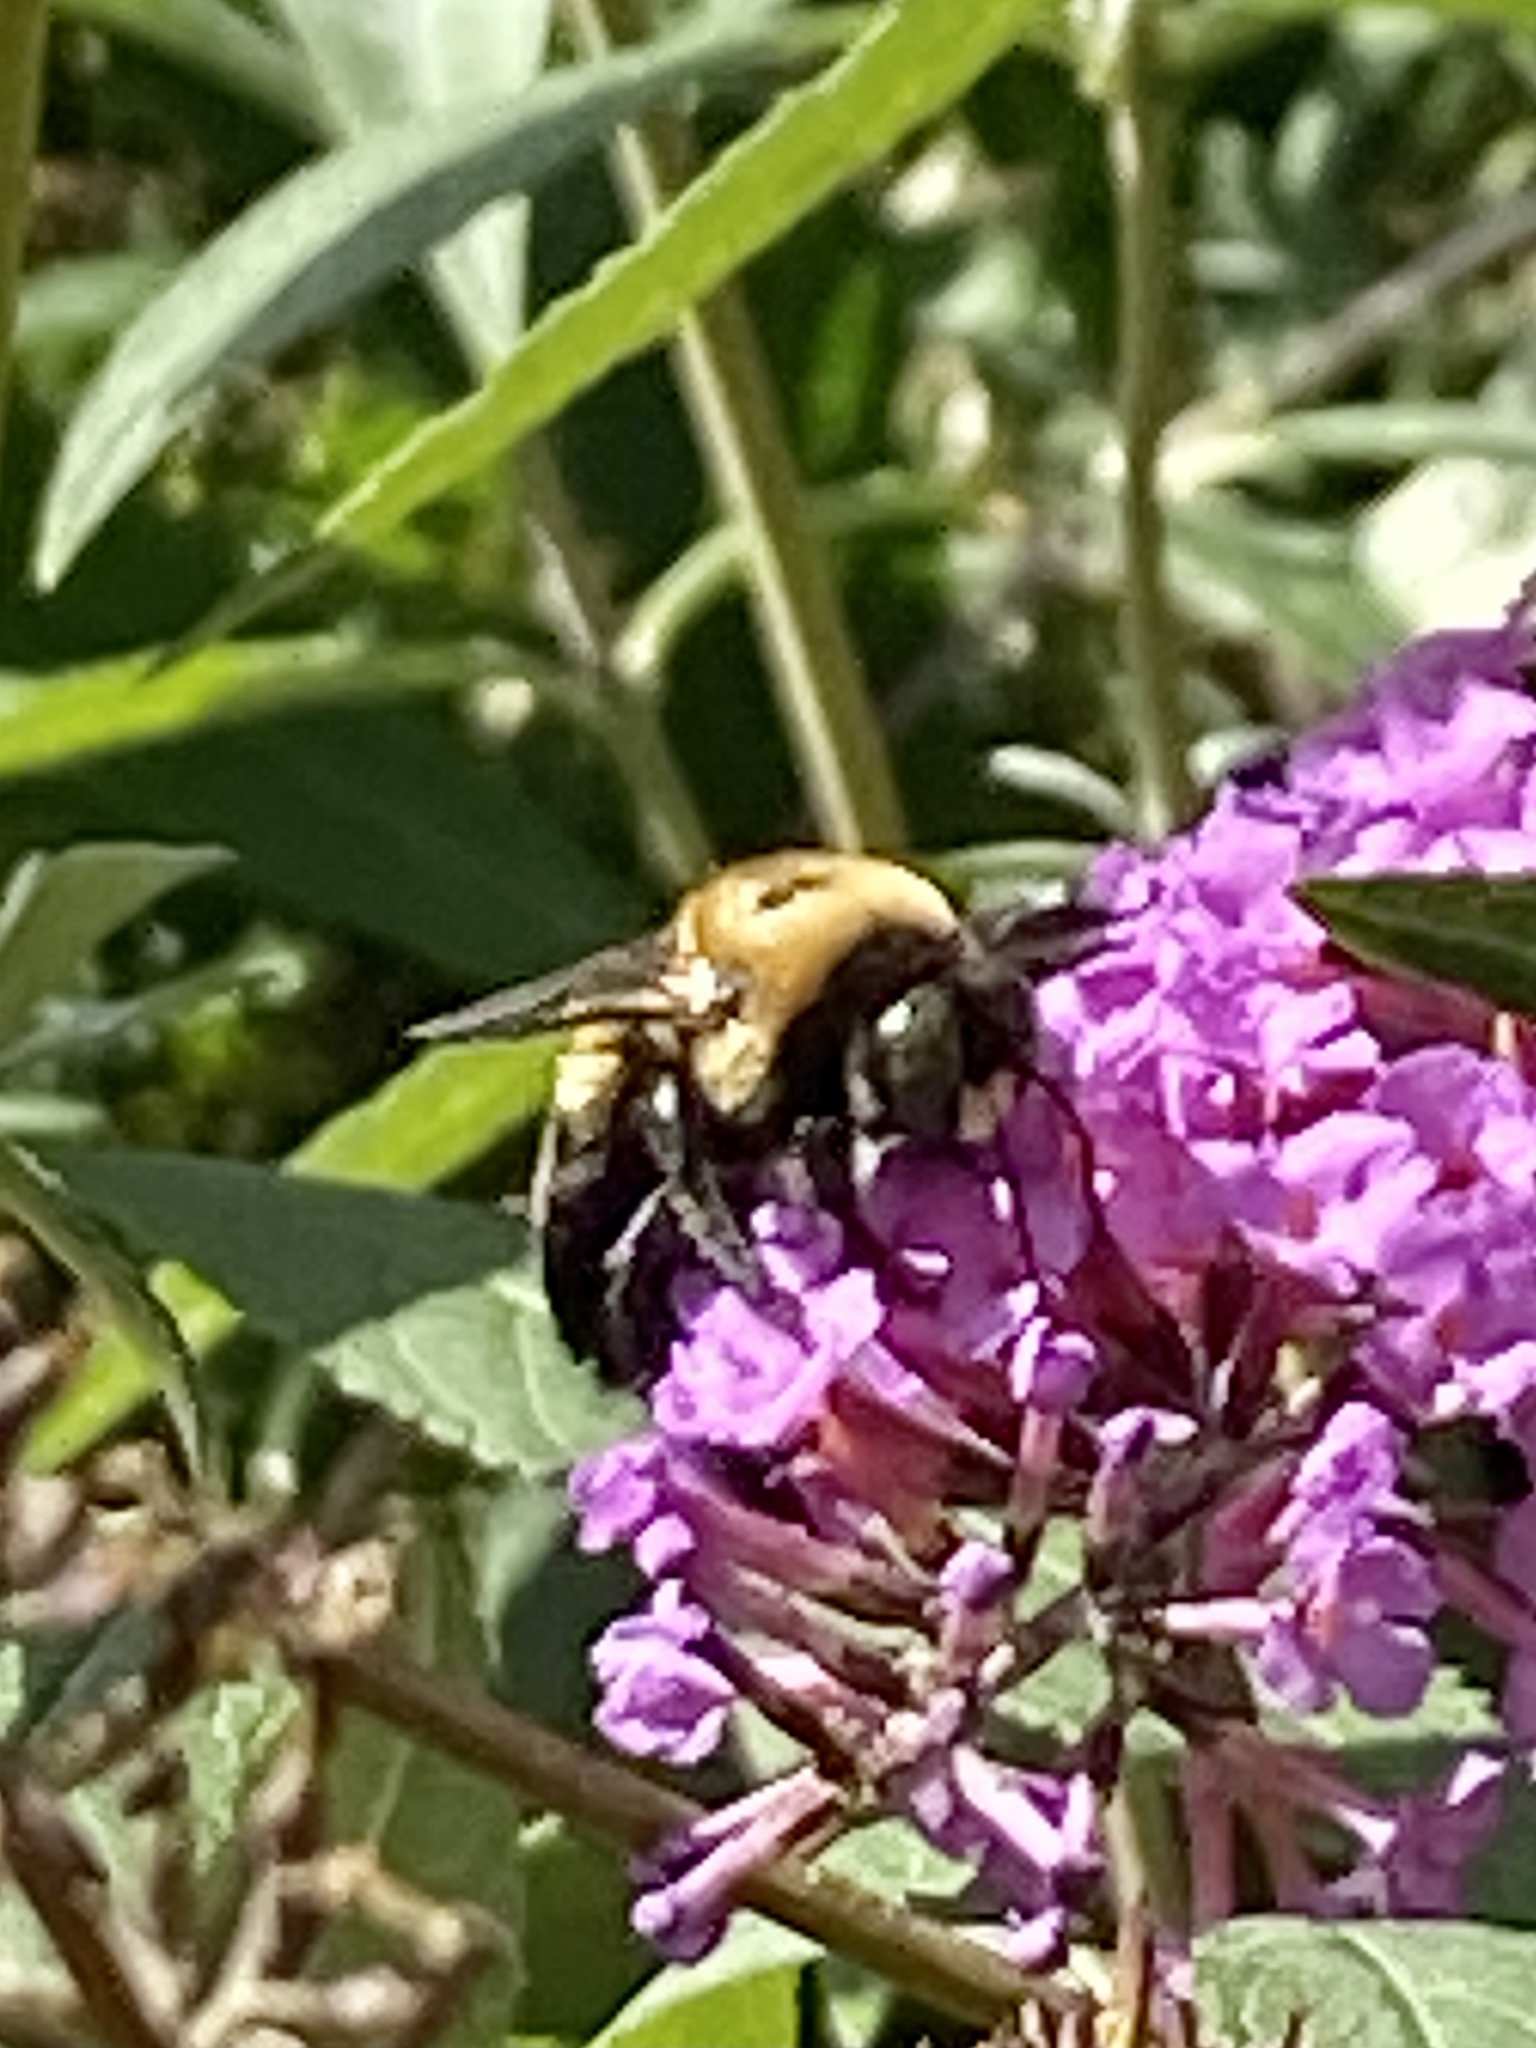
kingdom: Animalia
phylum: Arthropoda
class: Insecta
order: Hymenoptera
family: Apidae
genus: Xylocopa
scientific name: Xylocopa virginica
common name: Carpenter bee
